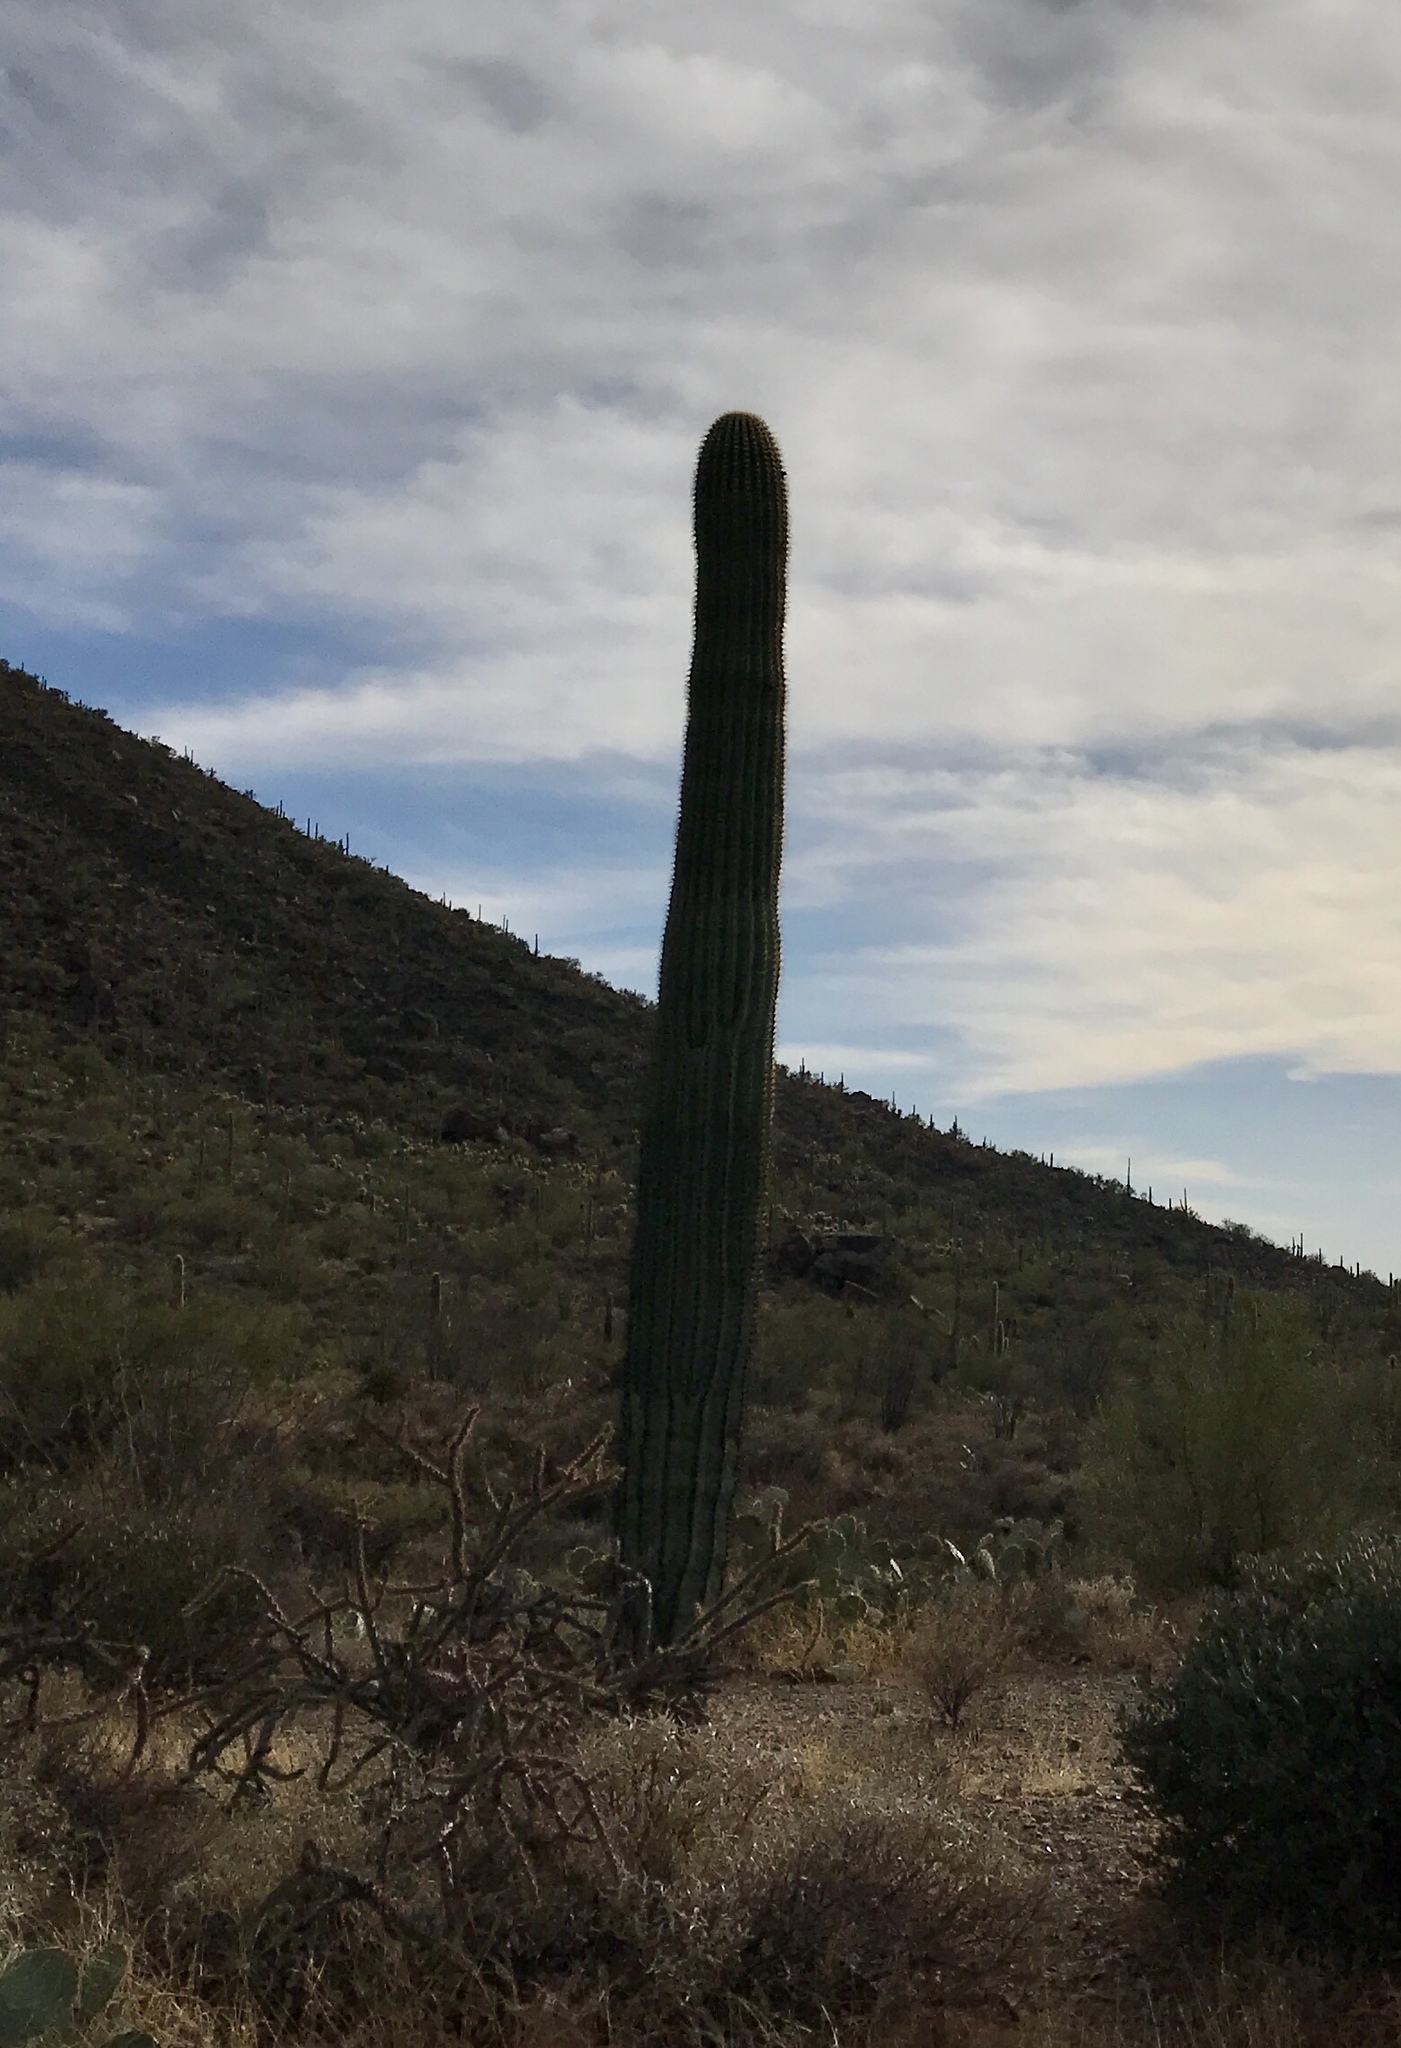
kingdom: Plantae
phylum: Tracheophyta
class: Magnoliopsida
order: Caryophyllales
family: Cactaceae
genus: Carnegiea
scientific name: Carnegiea gigantea
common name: Saguaro
